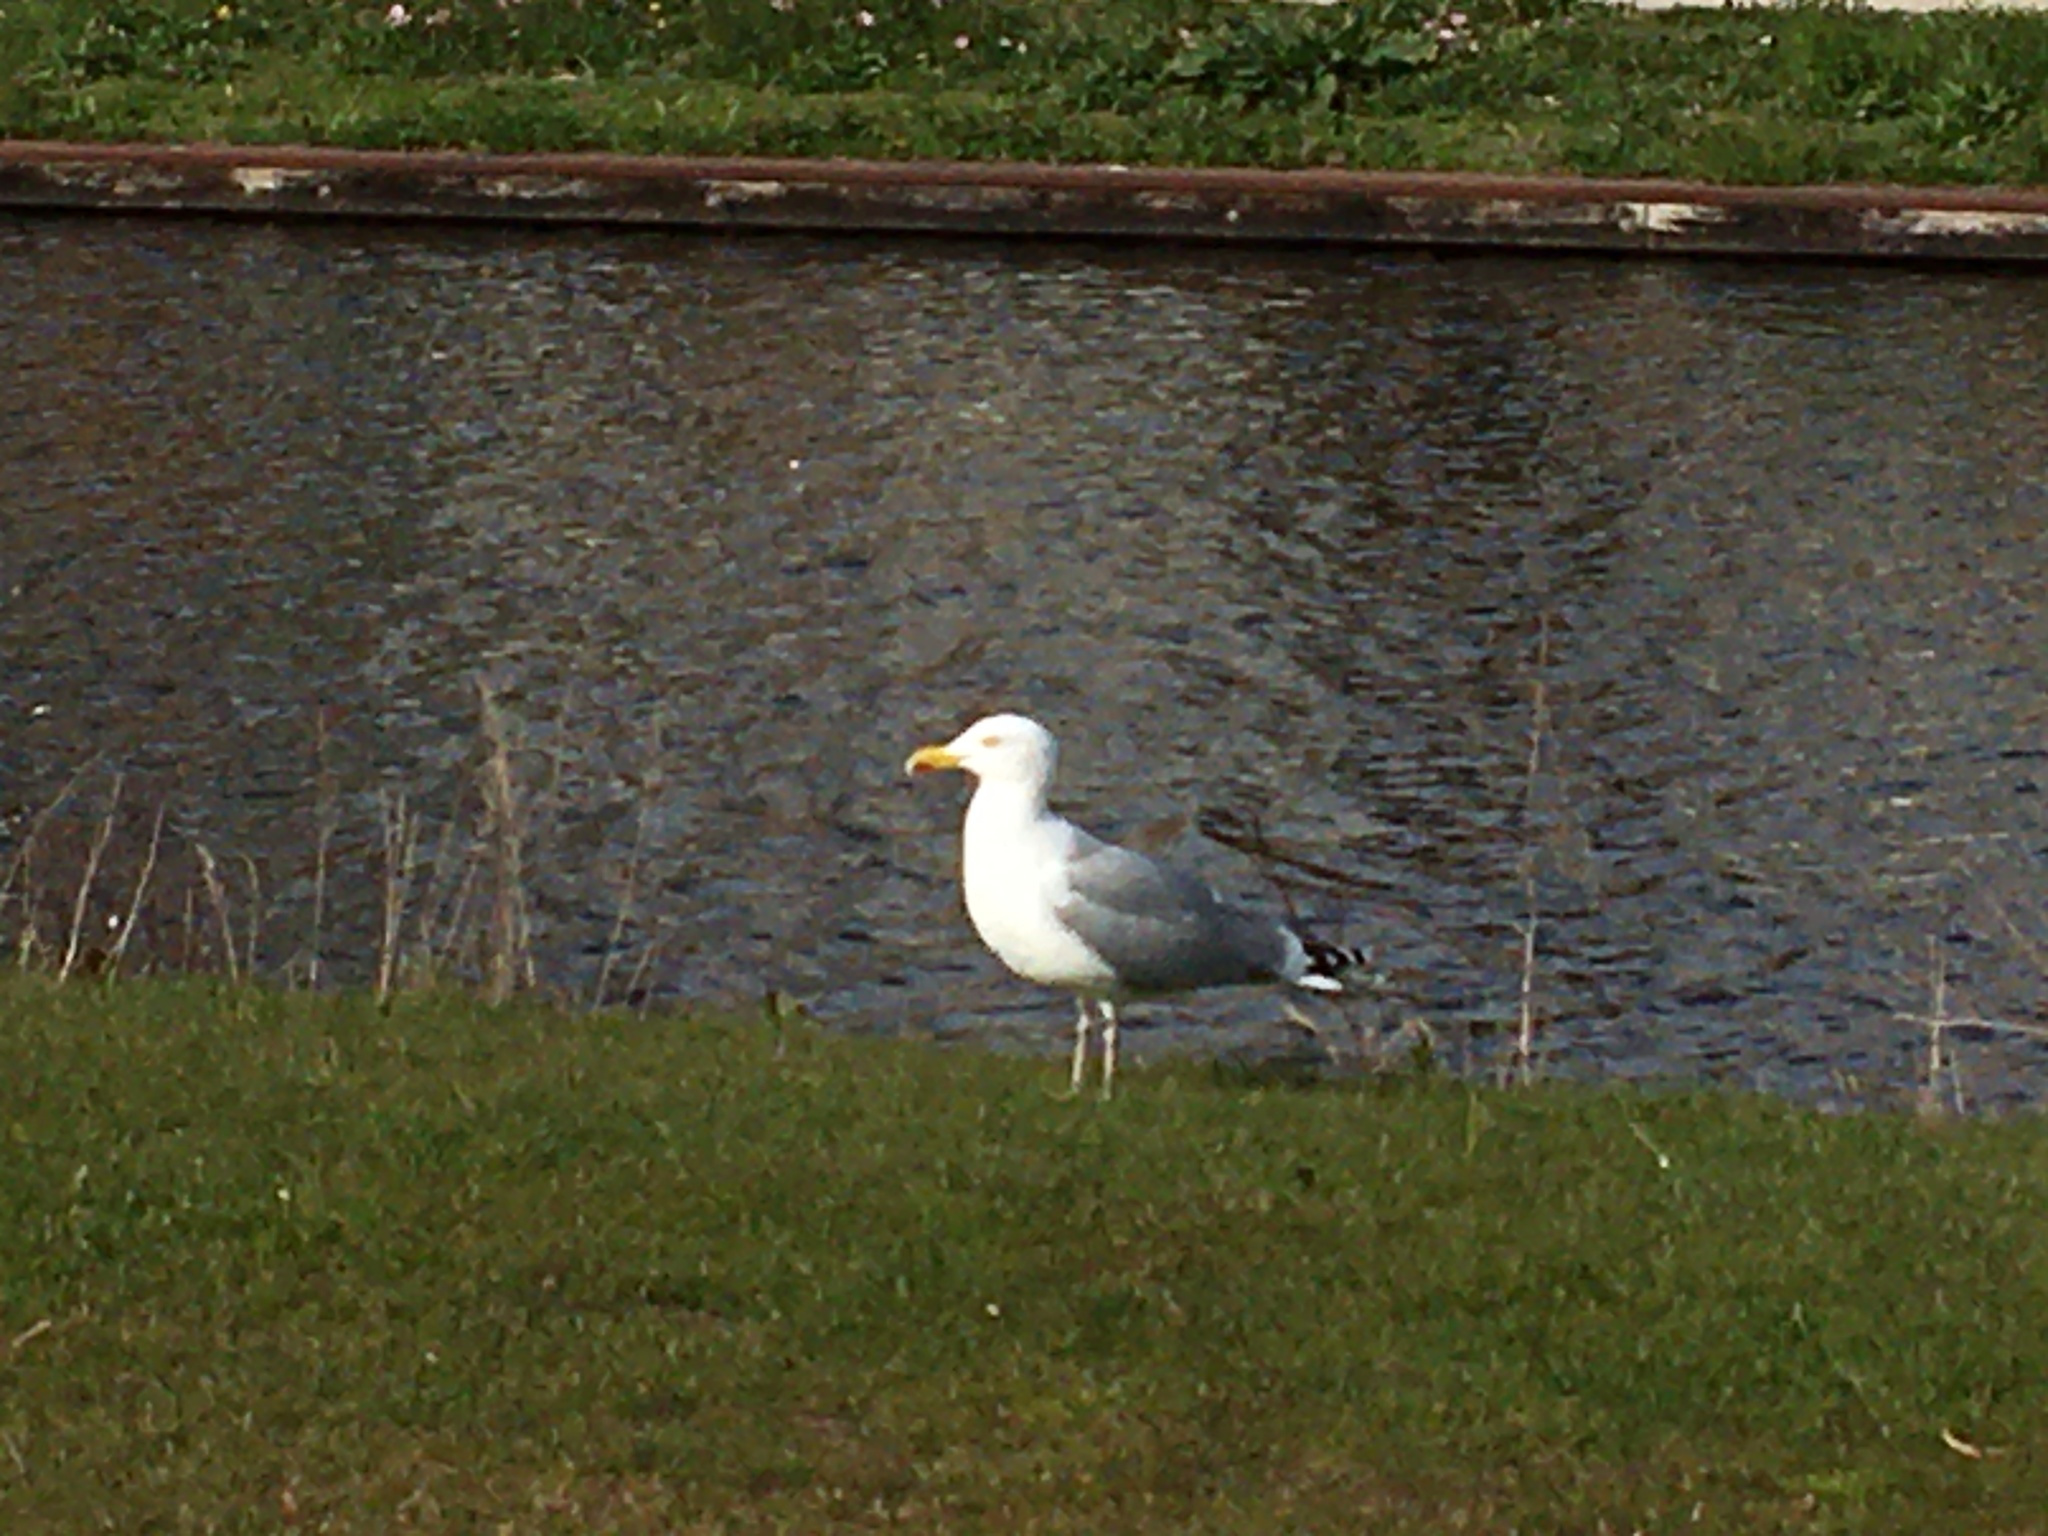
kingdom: Animalia
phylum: Chordata
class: Aves
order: Charadriiformes
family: Laridae
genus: Larus
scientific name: Larus argentatus
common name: Herring gull
